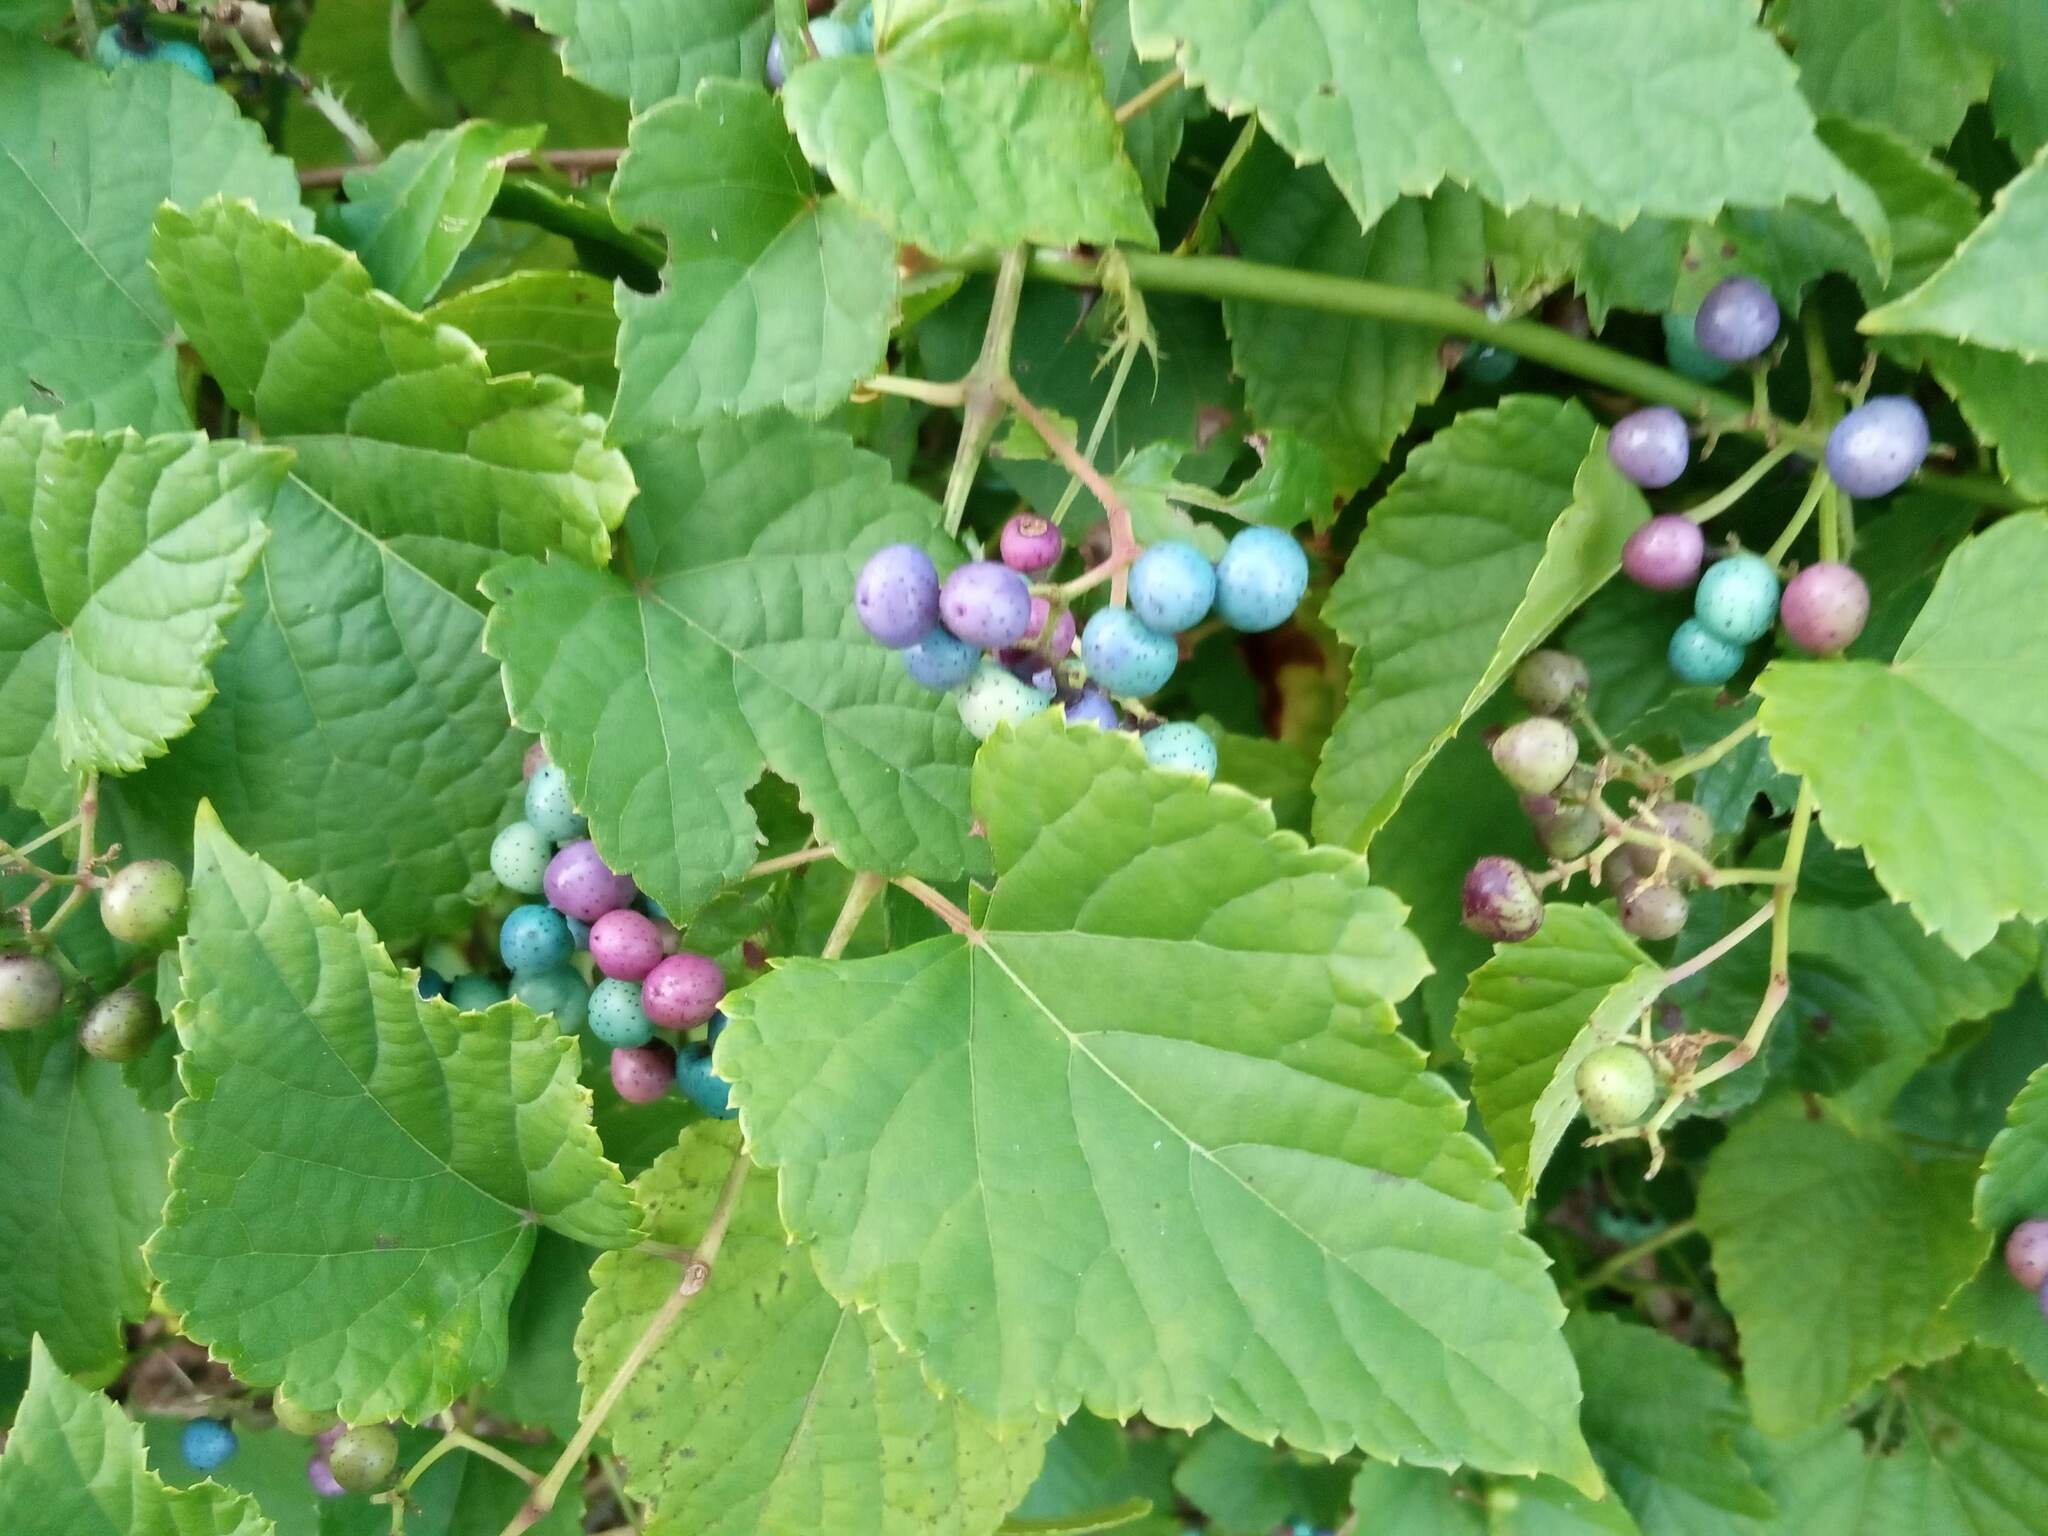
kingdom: Plantae
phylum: Tracheophyta
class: Magnoliopsida
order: Vitales
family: Vitaceae
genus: Ampelopsis
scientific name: Ampelopsis glandulosa
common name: Amur peppervine
